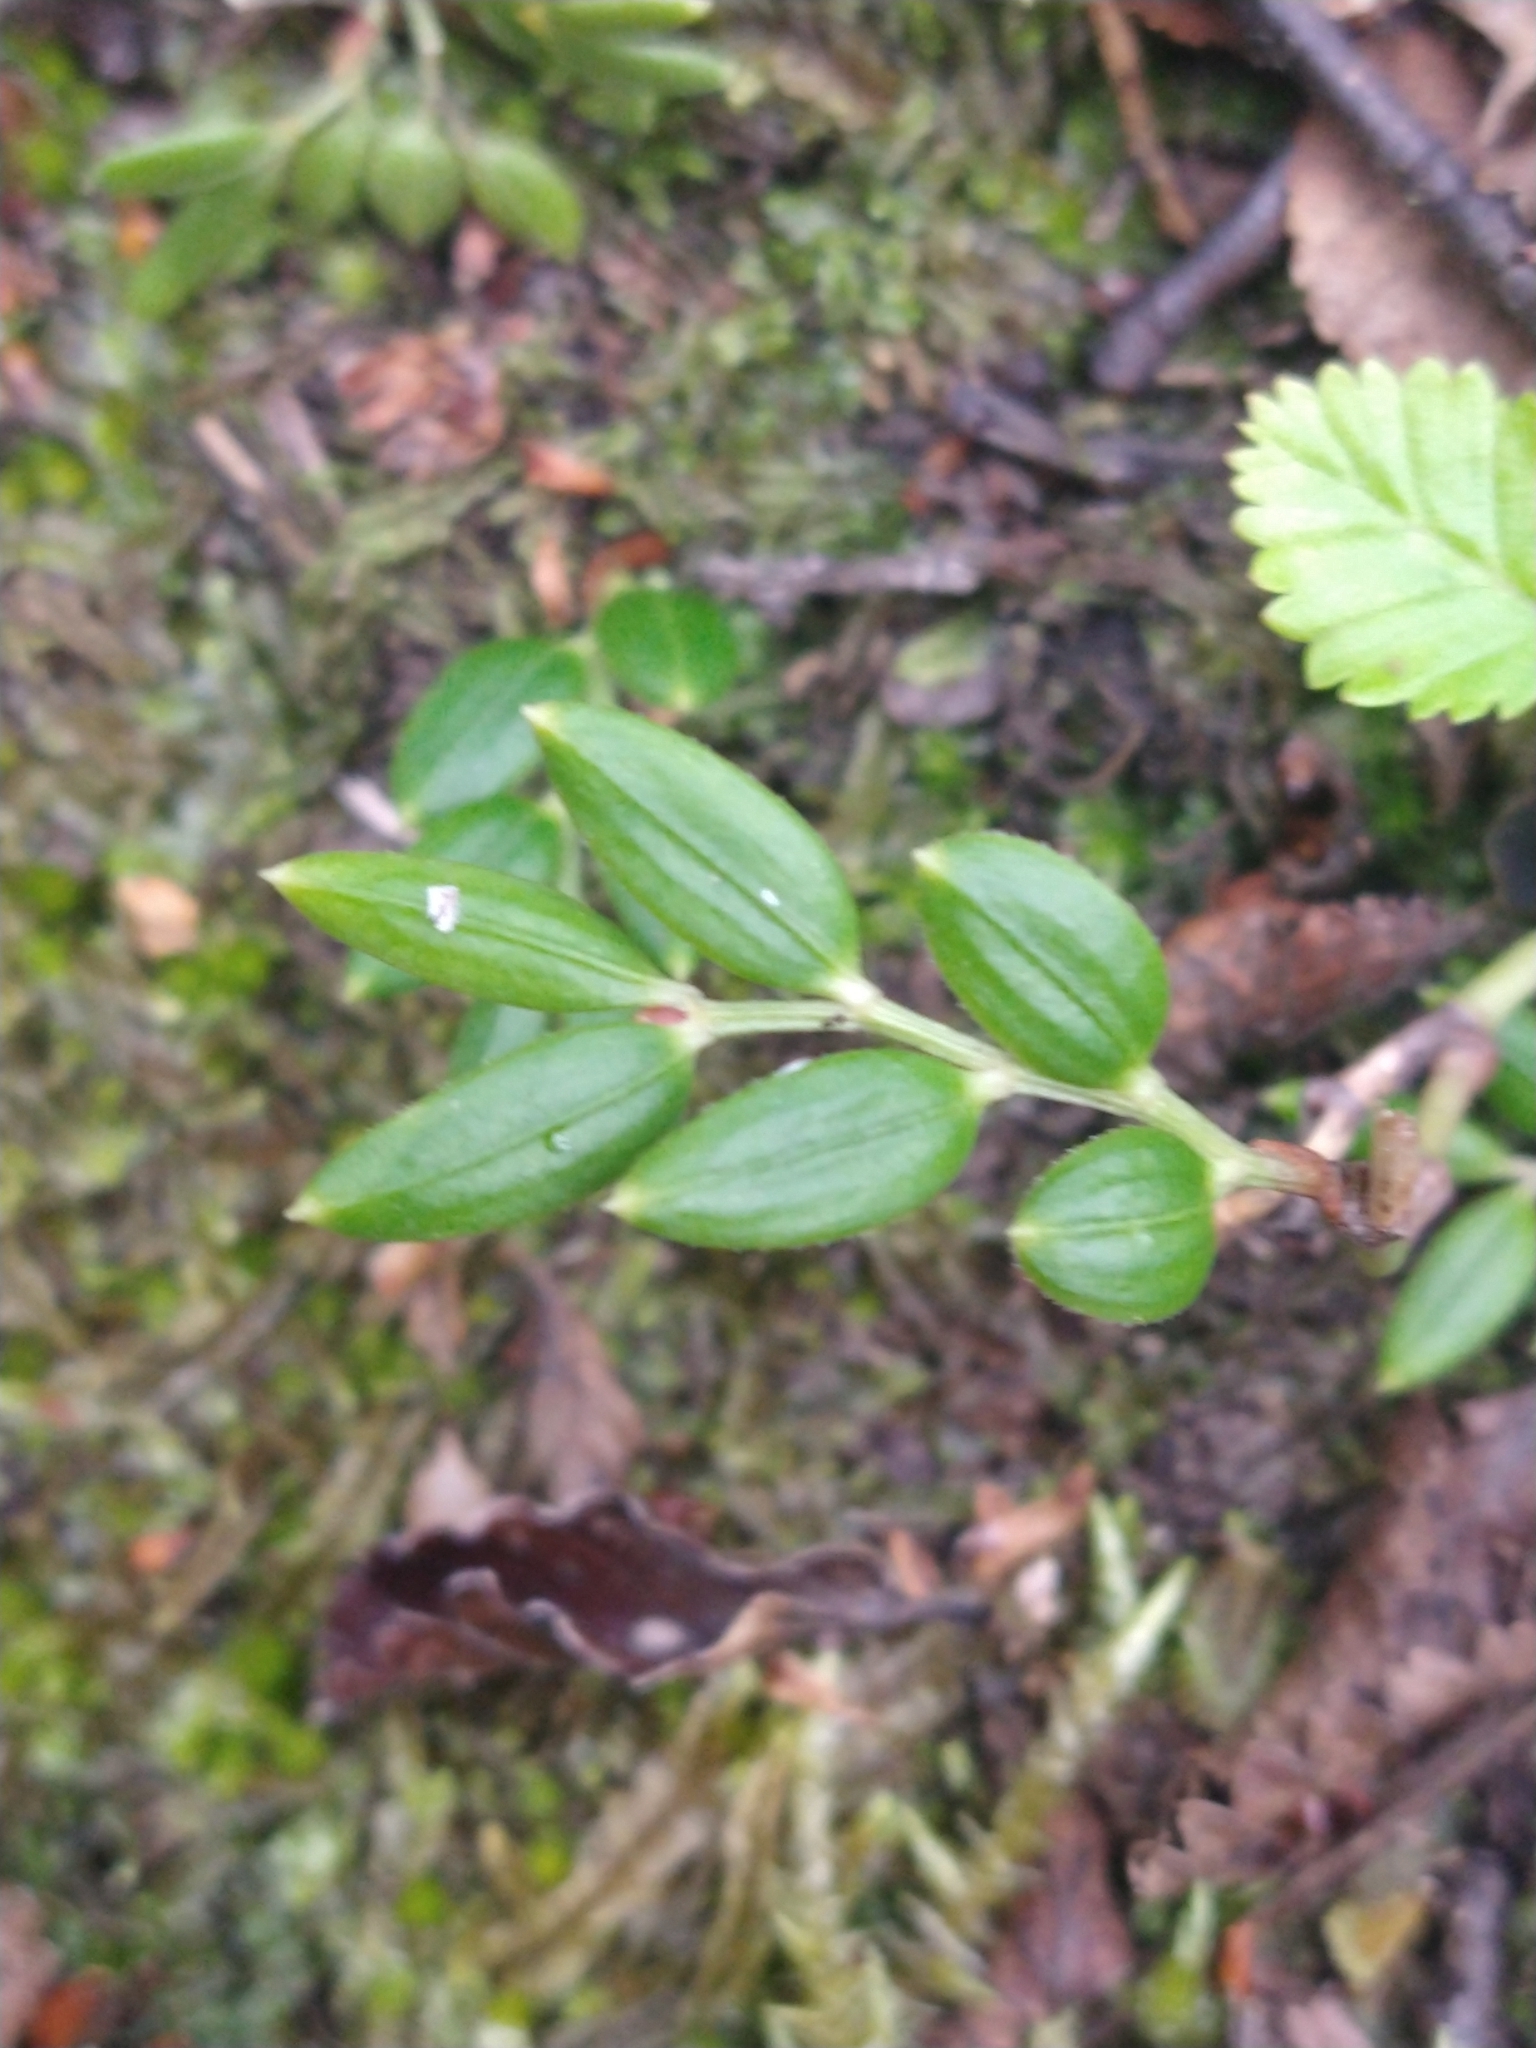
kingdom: Plantae
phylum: Tracheophyta
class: Liliopsida
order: Liliales
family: Alstroemeriaceae
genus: Luzuriaga
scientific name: Luzuriaga marginata
